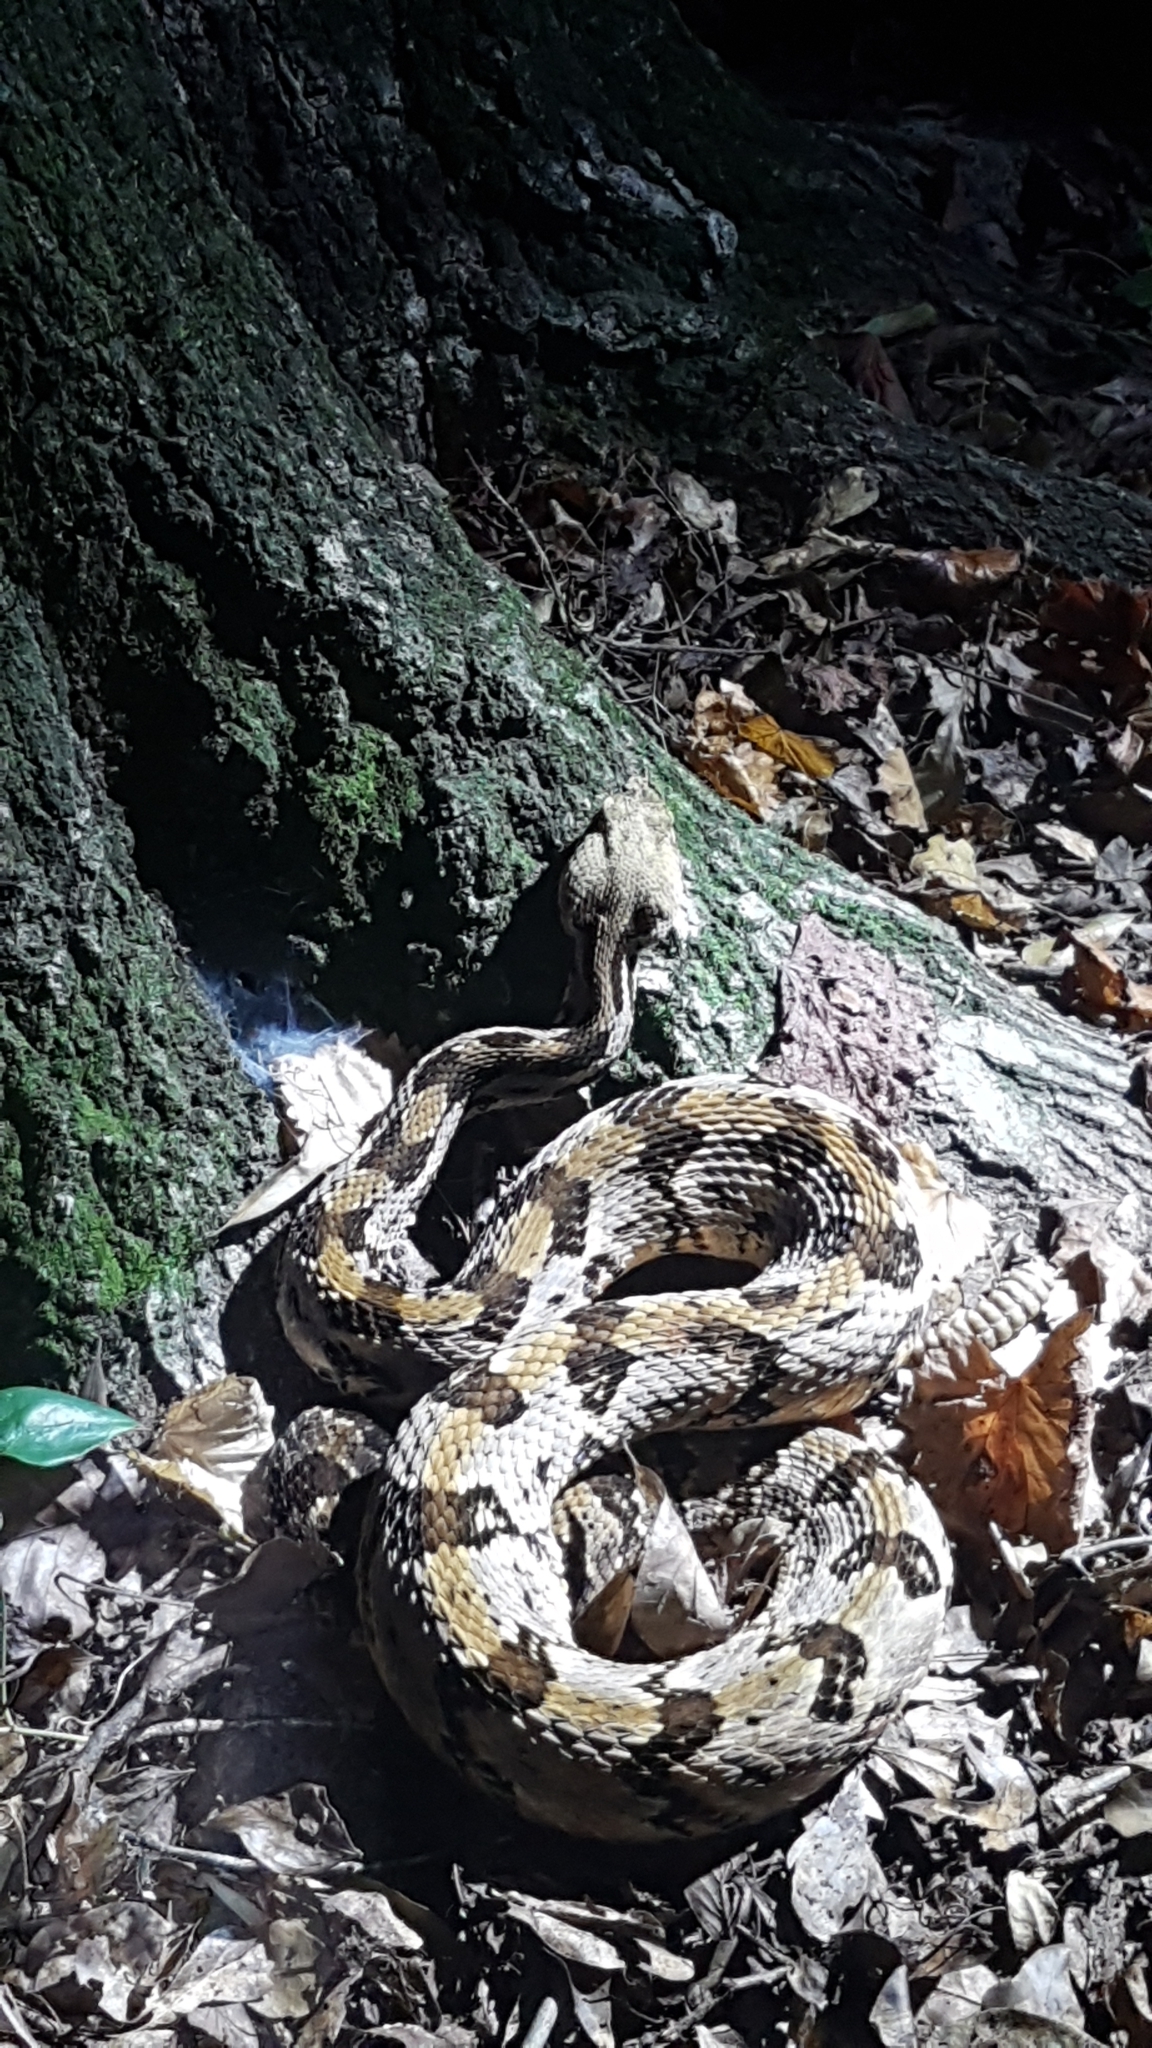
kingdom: Animalia
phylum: Chordata
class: Squamata
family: Viperidae
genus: Crotalus
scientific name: Crotalus horridus
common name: Timber rattlesnake
